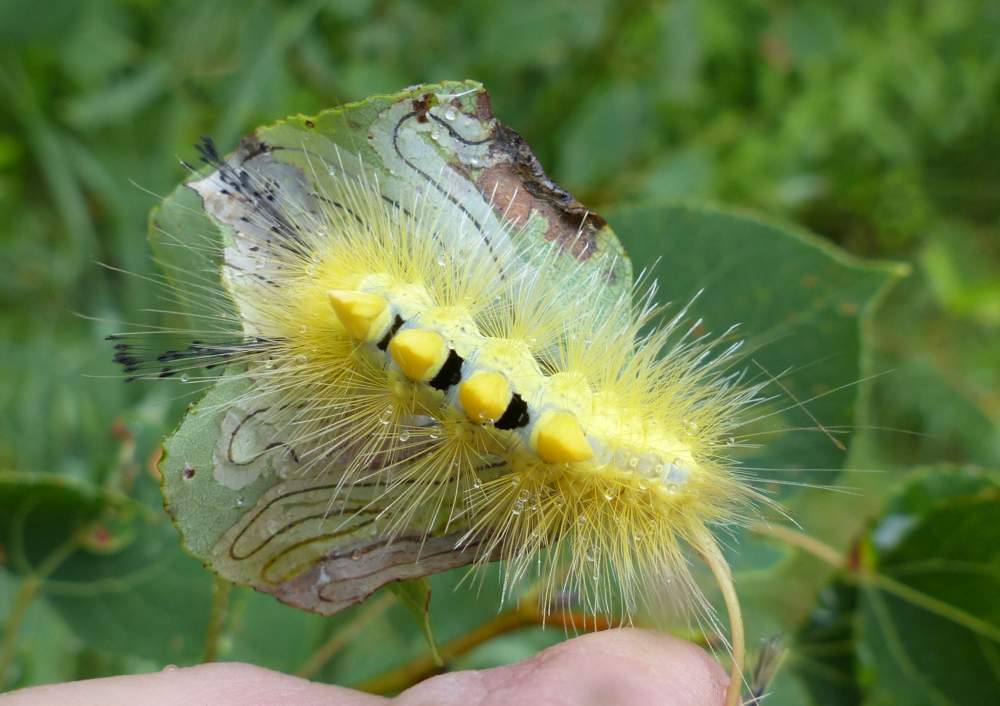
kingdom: Animalia
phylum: Arthropoda
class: Insecta
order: Lepidoptera
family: Erebidae
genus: Orgyia
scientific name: Orgyia definita
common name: Definite tussock moth
